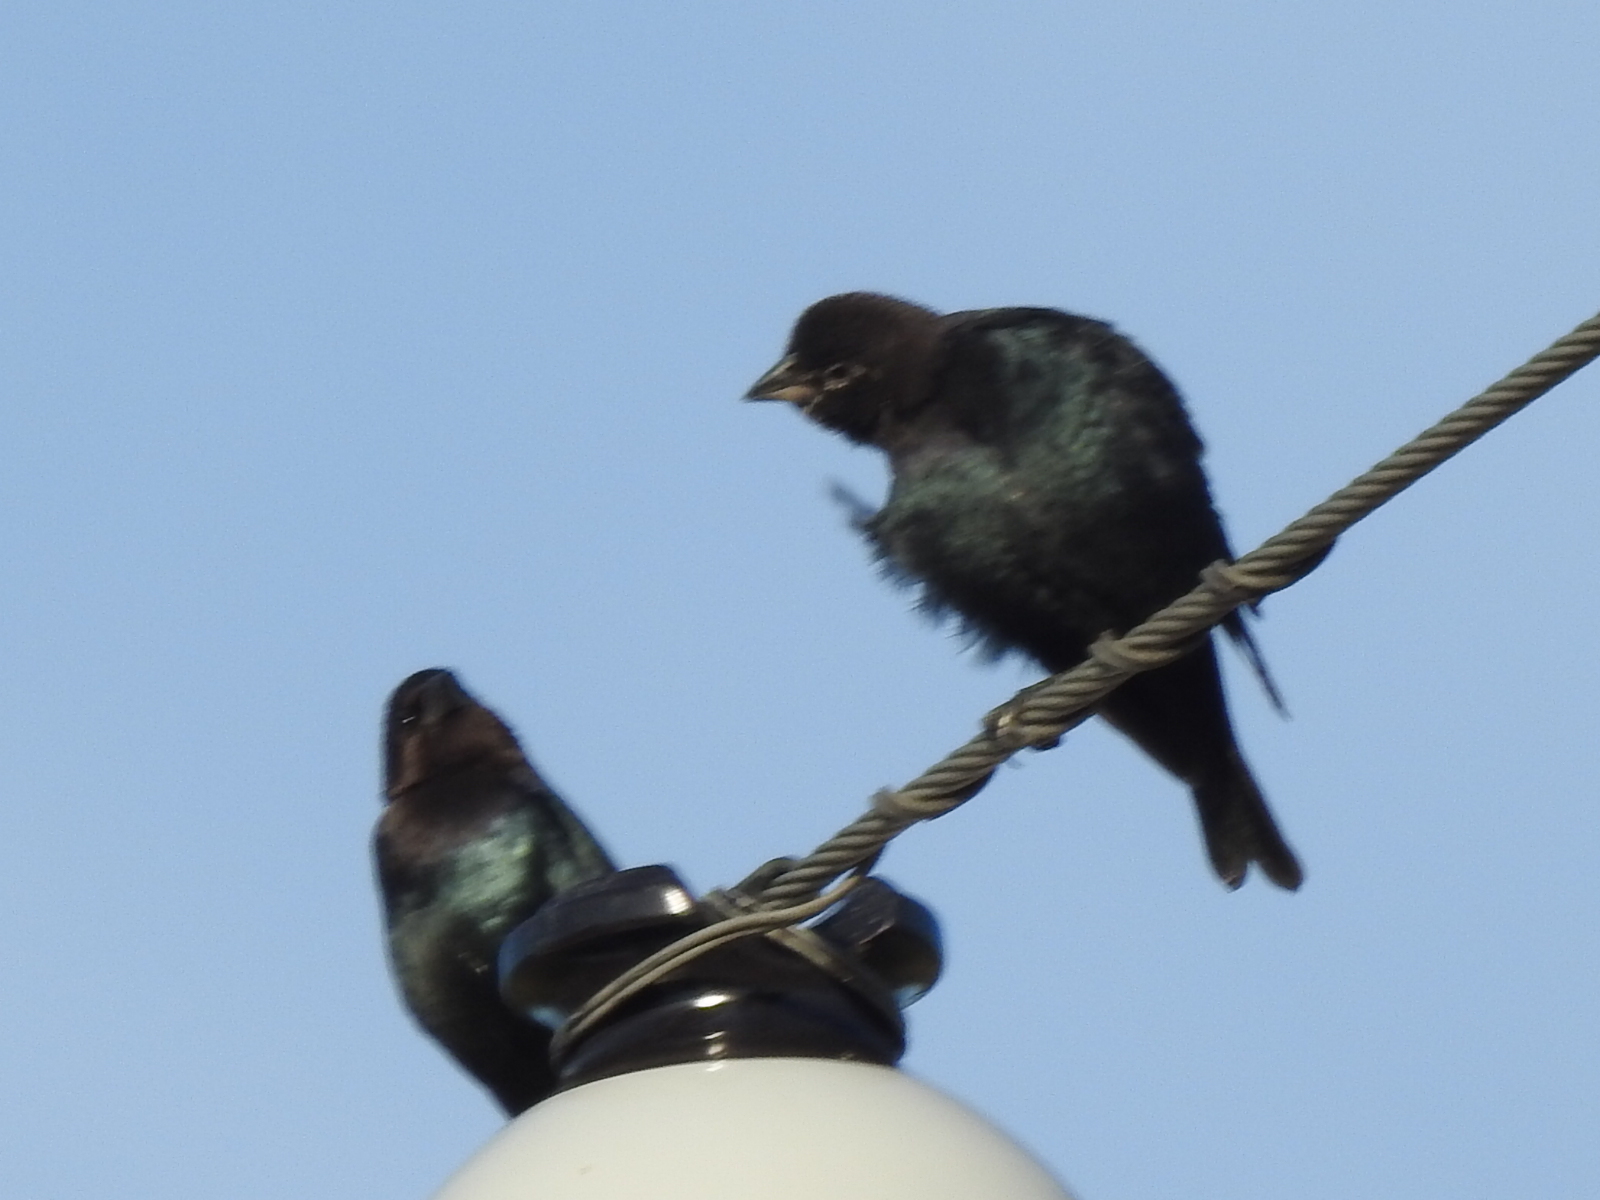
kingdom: Animalia
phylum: Chordata
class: Aves
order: Passeriformes
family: Icteridae
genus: Molothrus
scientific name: Molothrus ater
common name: Brown-headed cowbird
